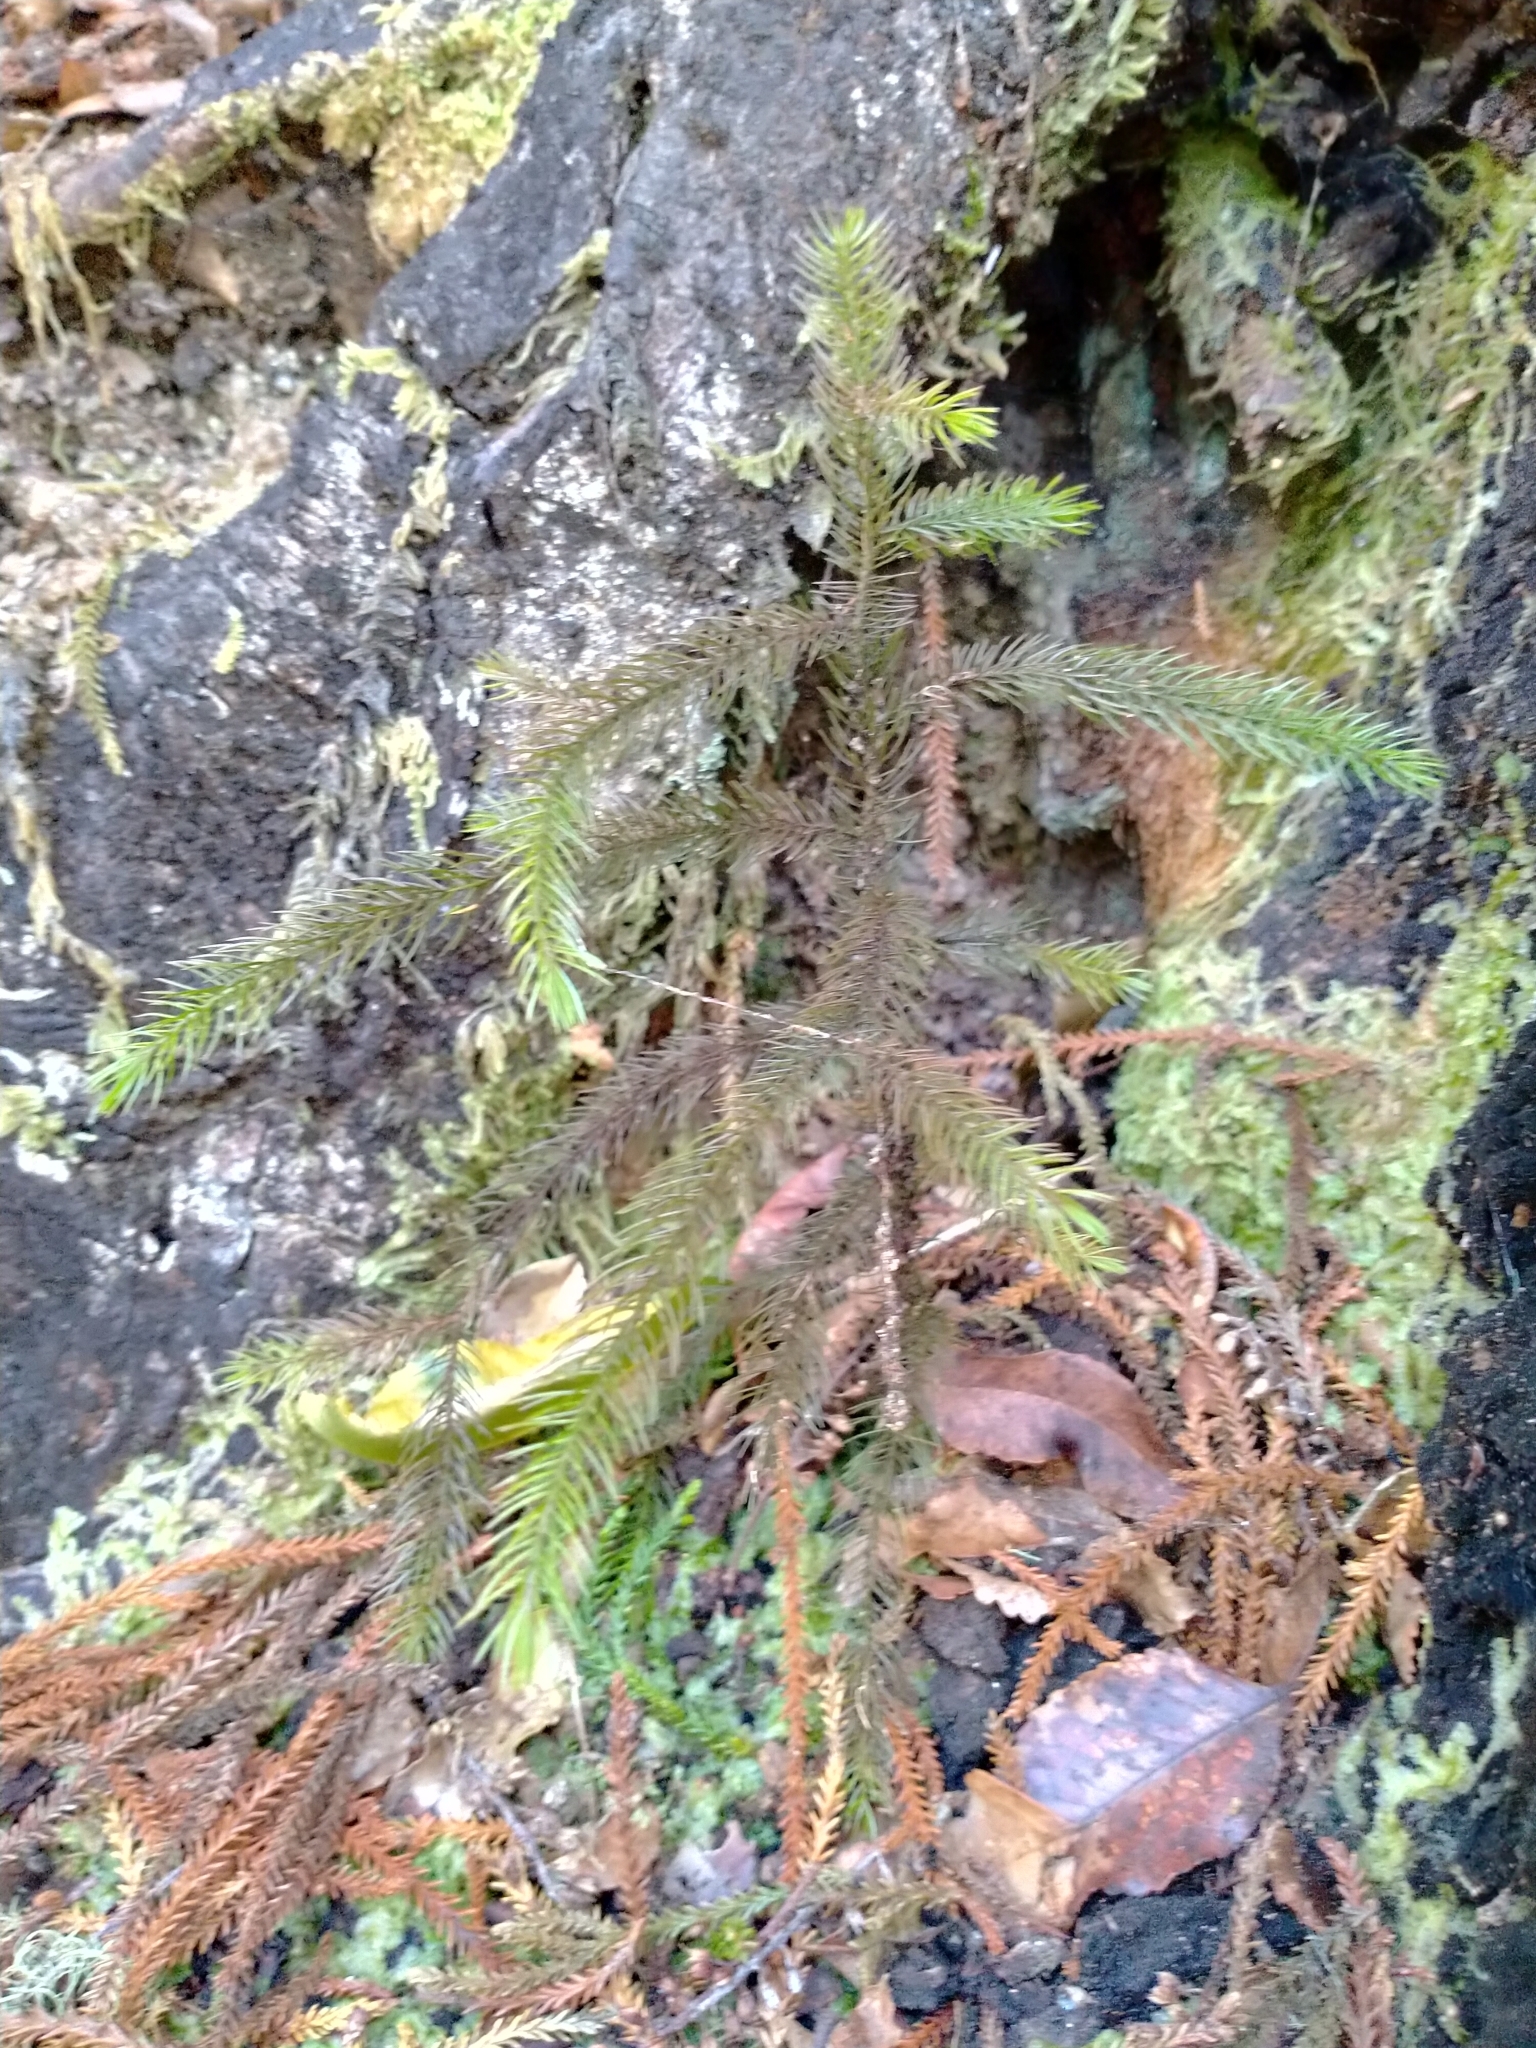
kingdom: Plantae
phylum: Tracheophyta
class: Pinopsida
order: Pinales
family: Podocarpaceae
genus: Dacrydium
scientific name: Dacrydium cupressinum
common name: Red pine
